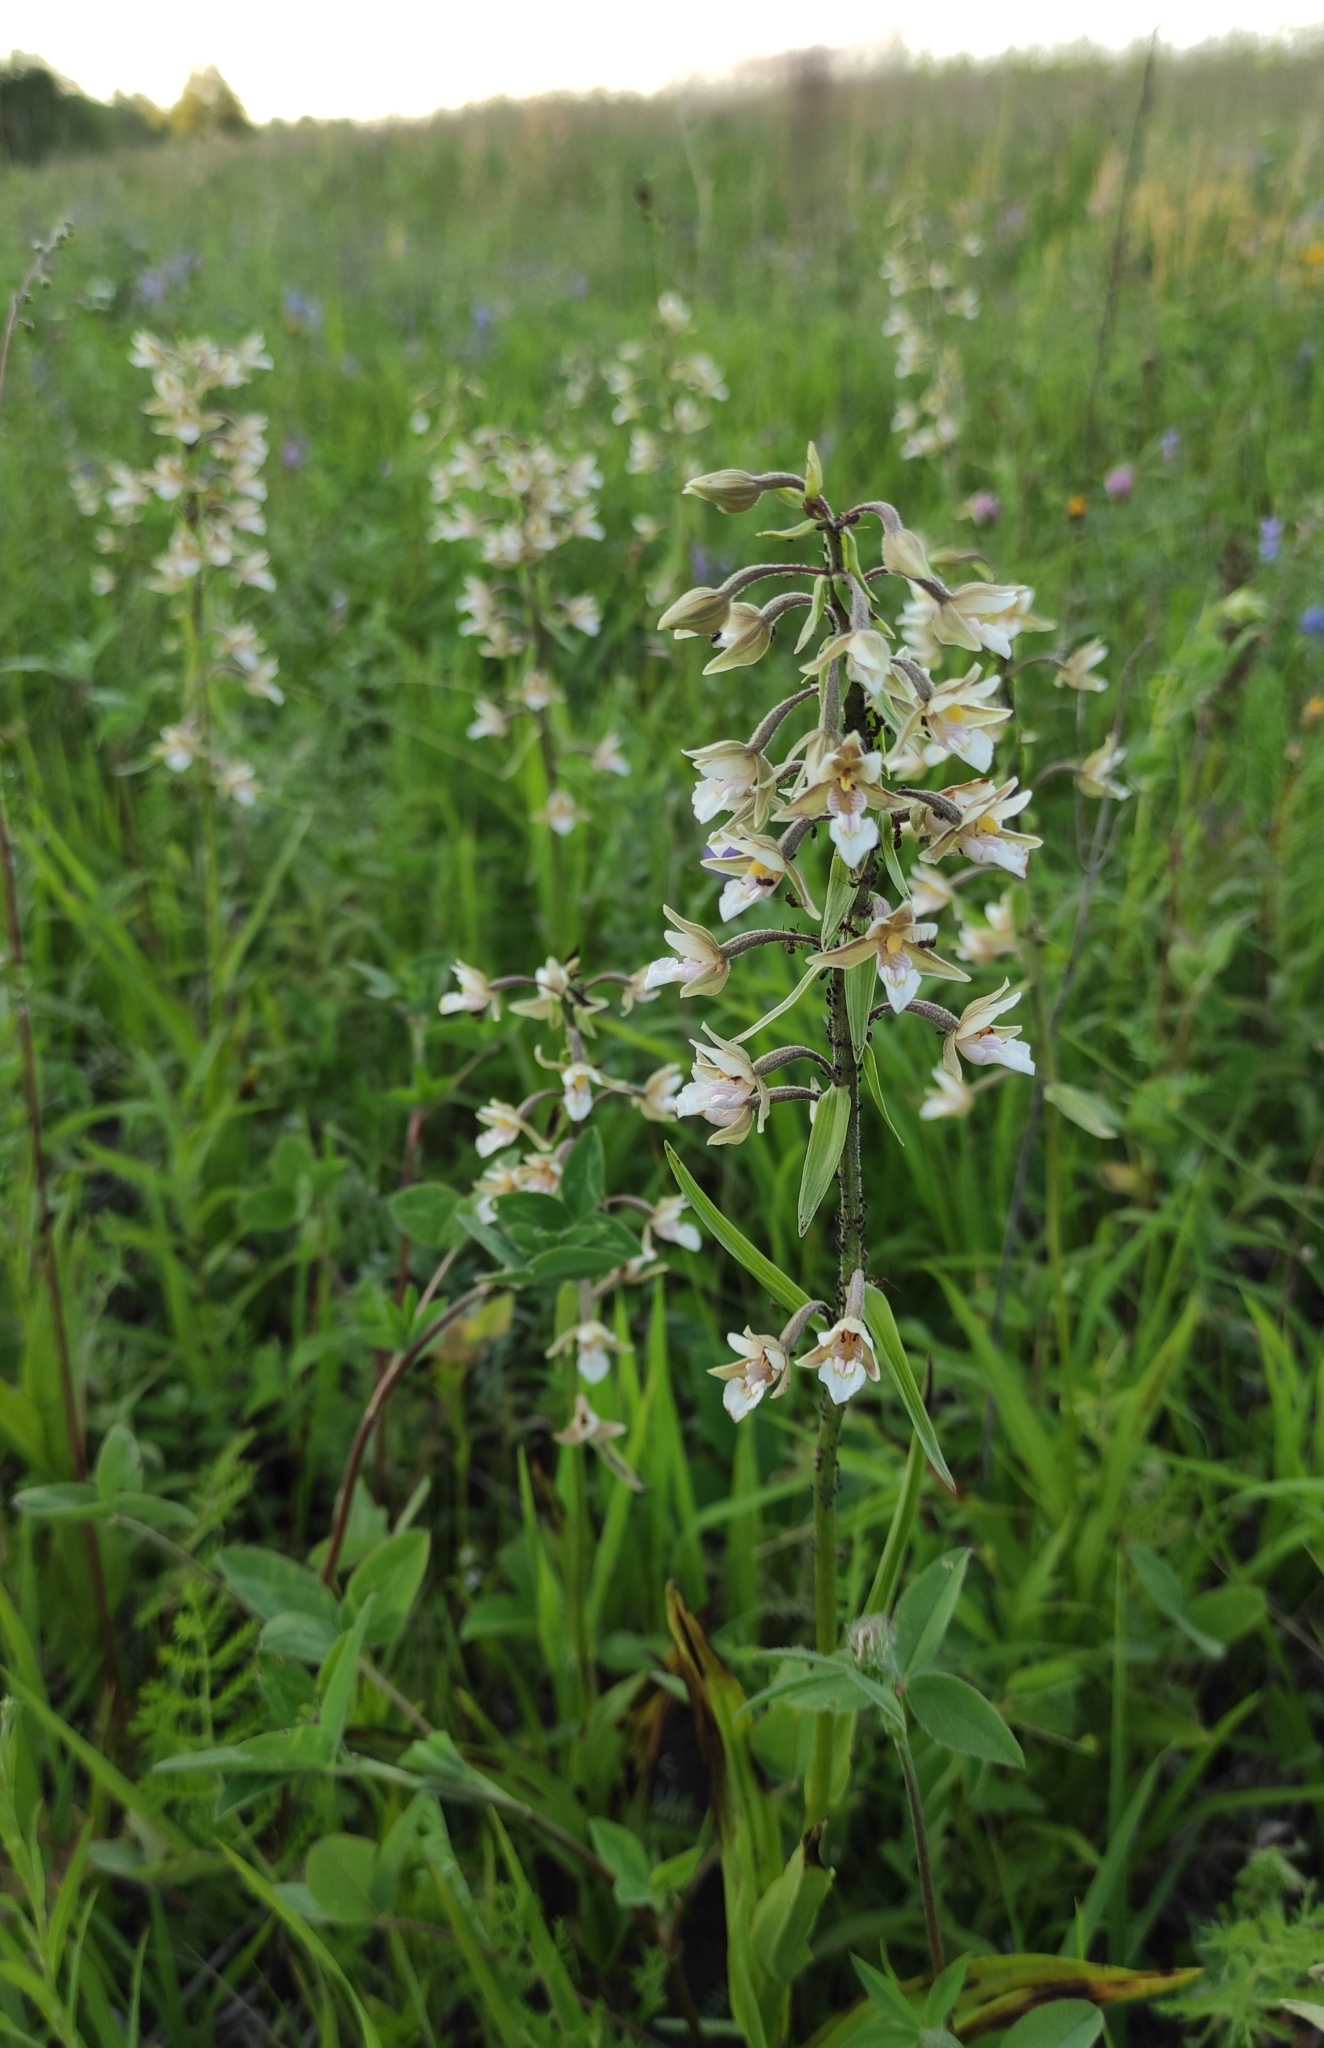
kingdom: Plantae
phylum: Tracheophyta
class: Liliopsida
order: Asparagales
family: Orchidaceae
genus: Epipactis
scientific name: Epipactis palustris
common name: Marsh helleborine
